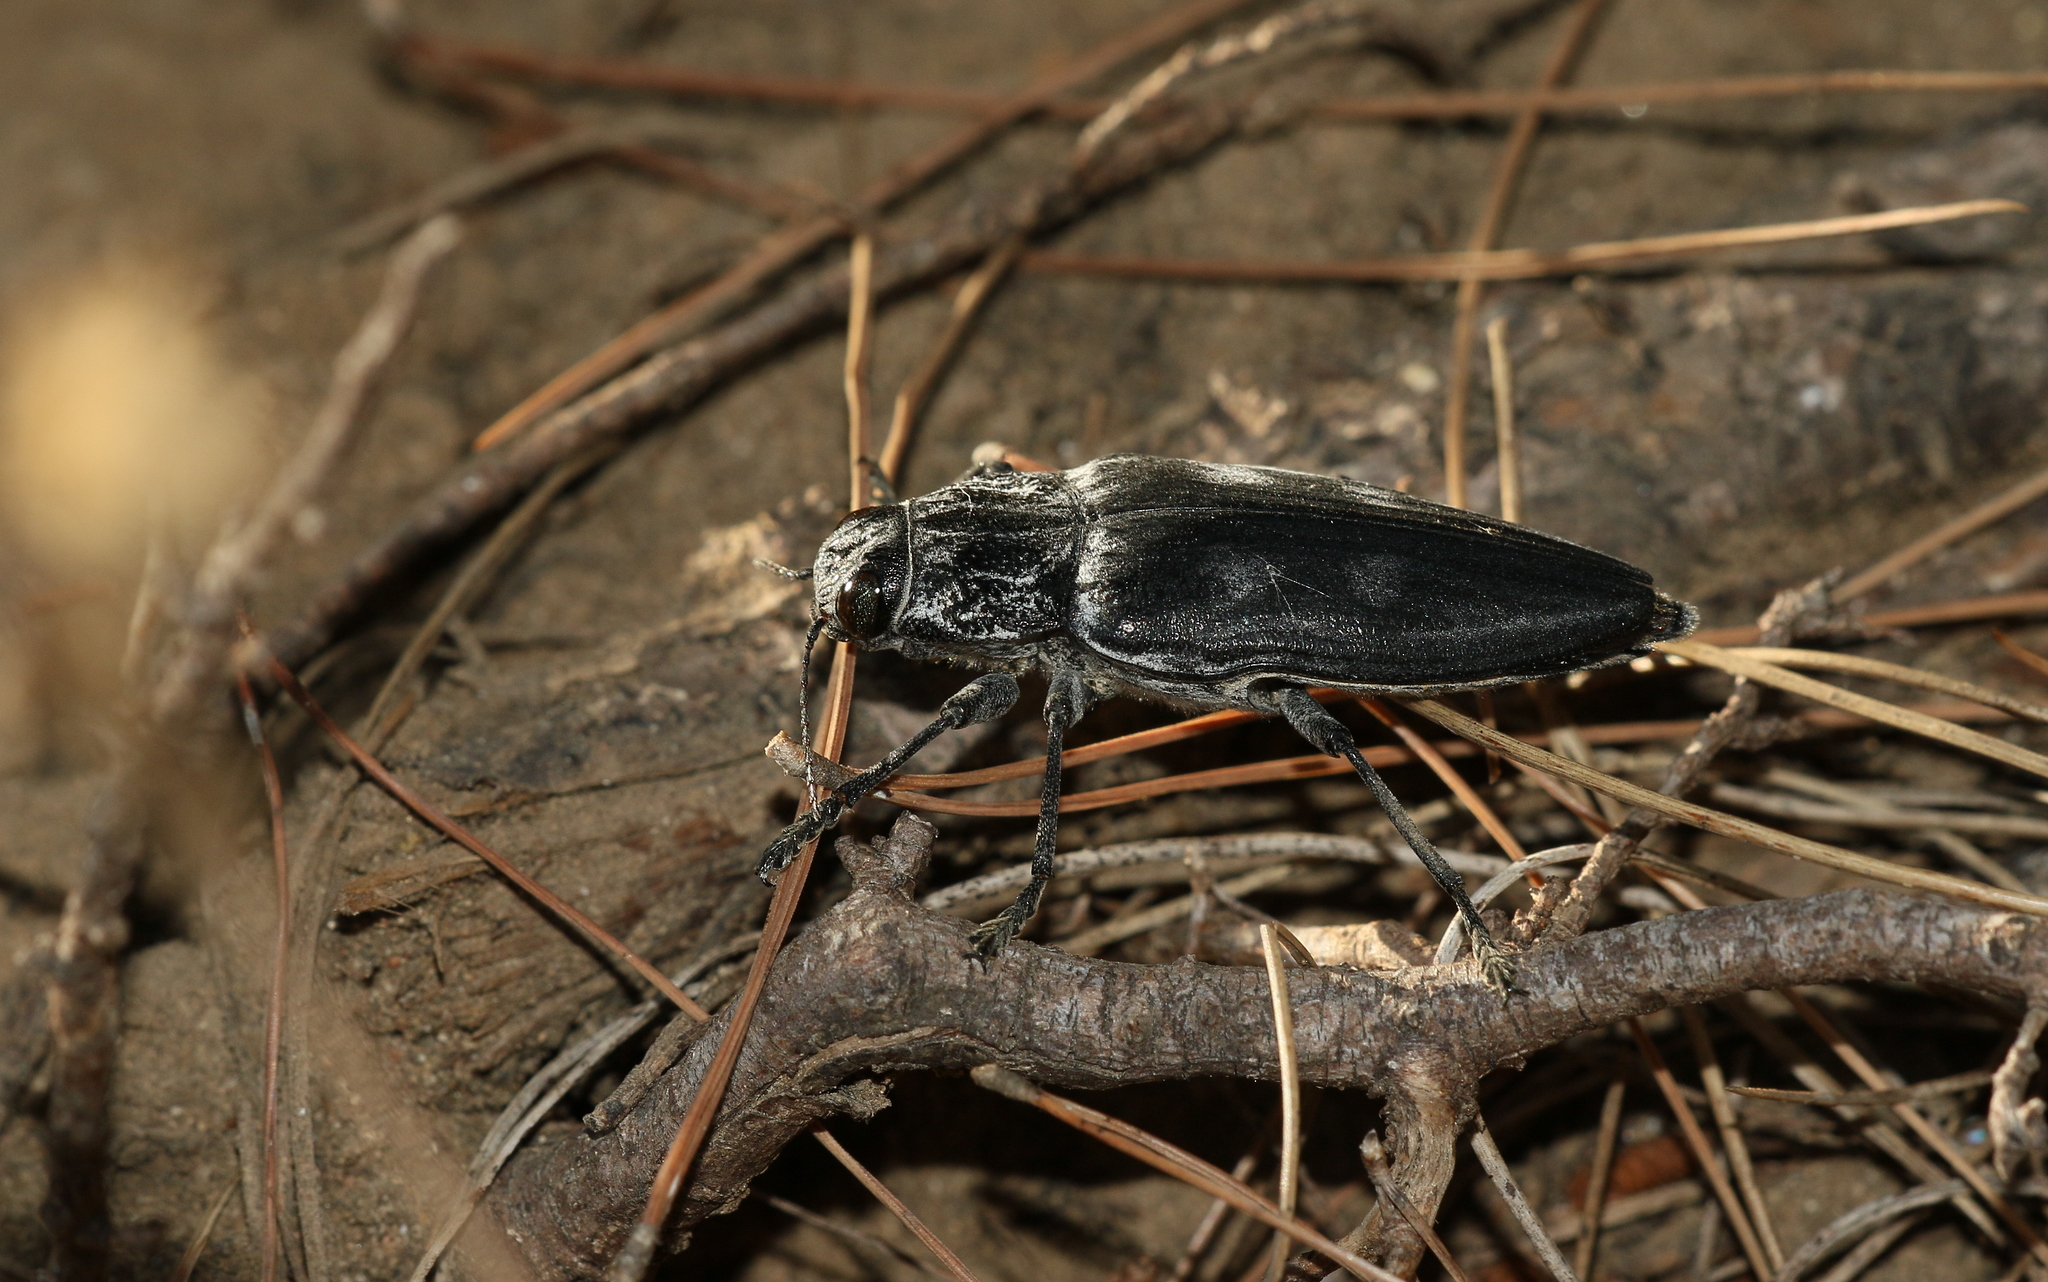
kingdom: Animalia
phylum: Arthropoda
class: Insecta
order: Coleoptera
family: Buprestidae
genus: Chalcophora
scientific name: Chalcophora detrita
